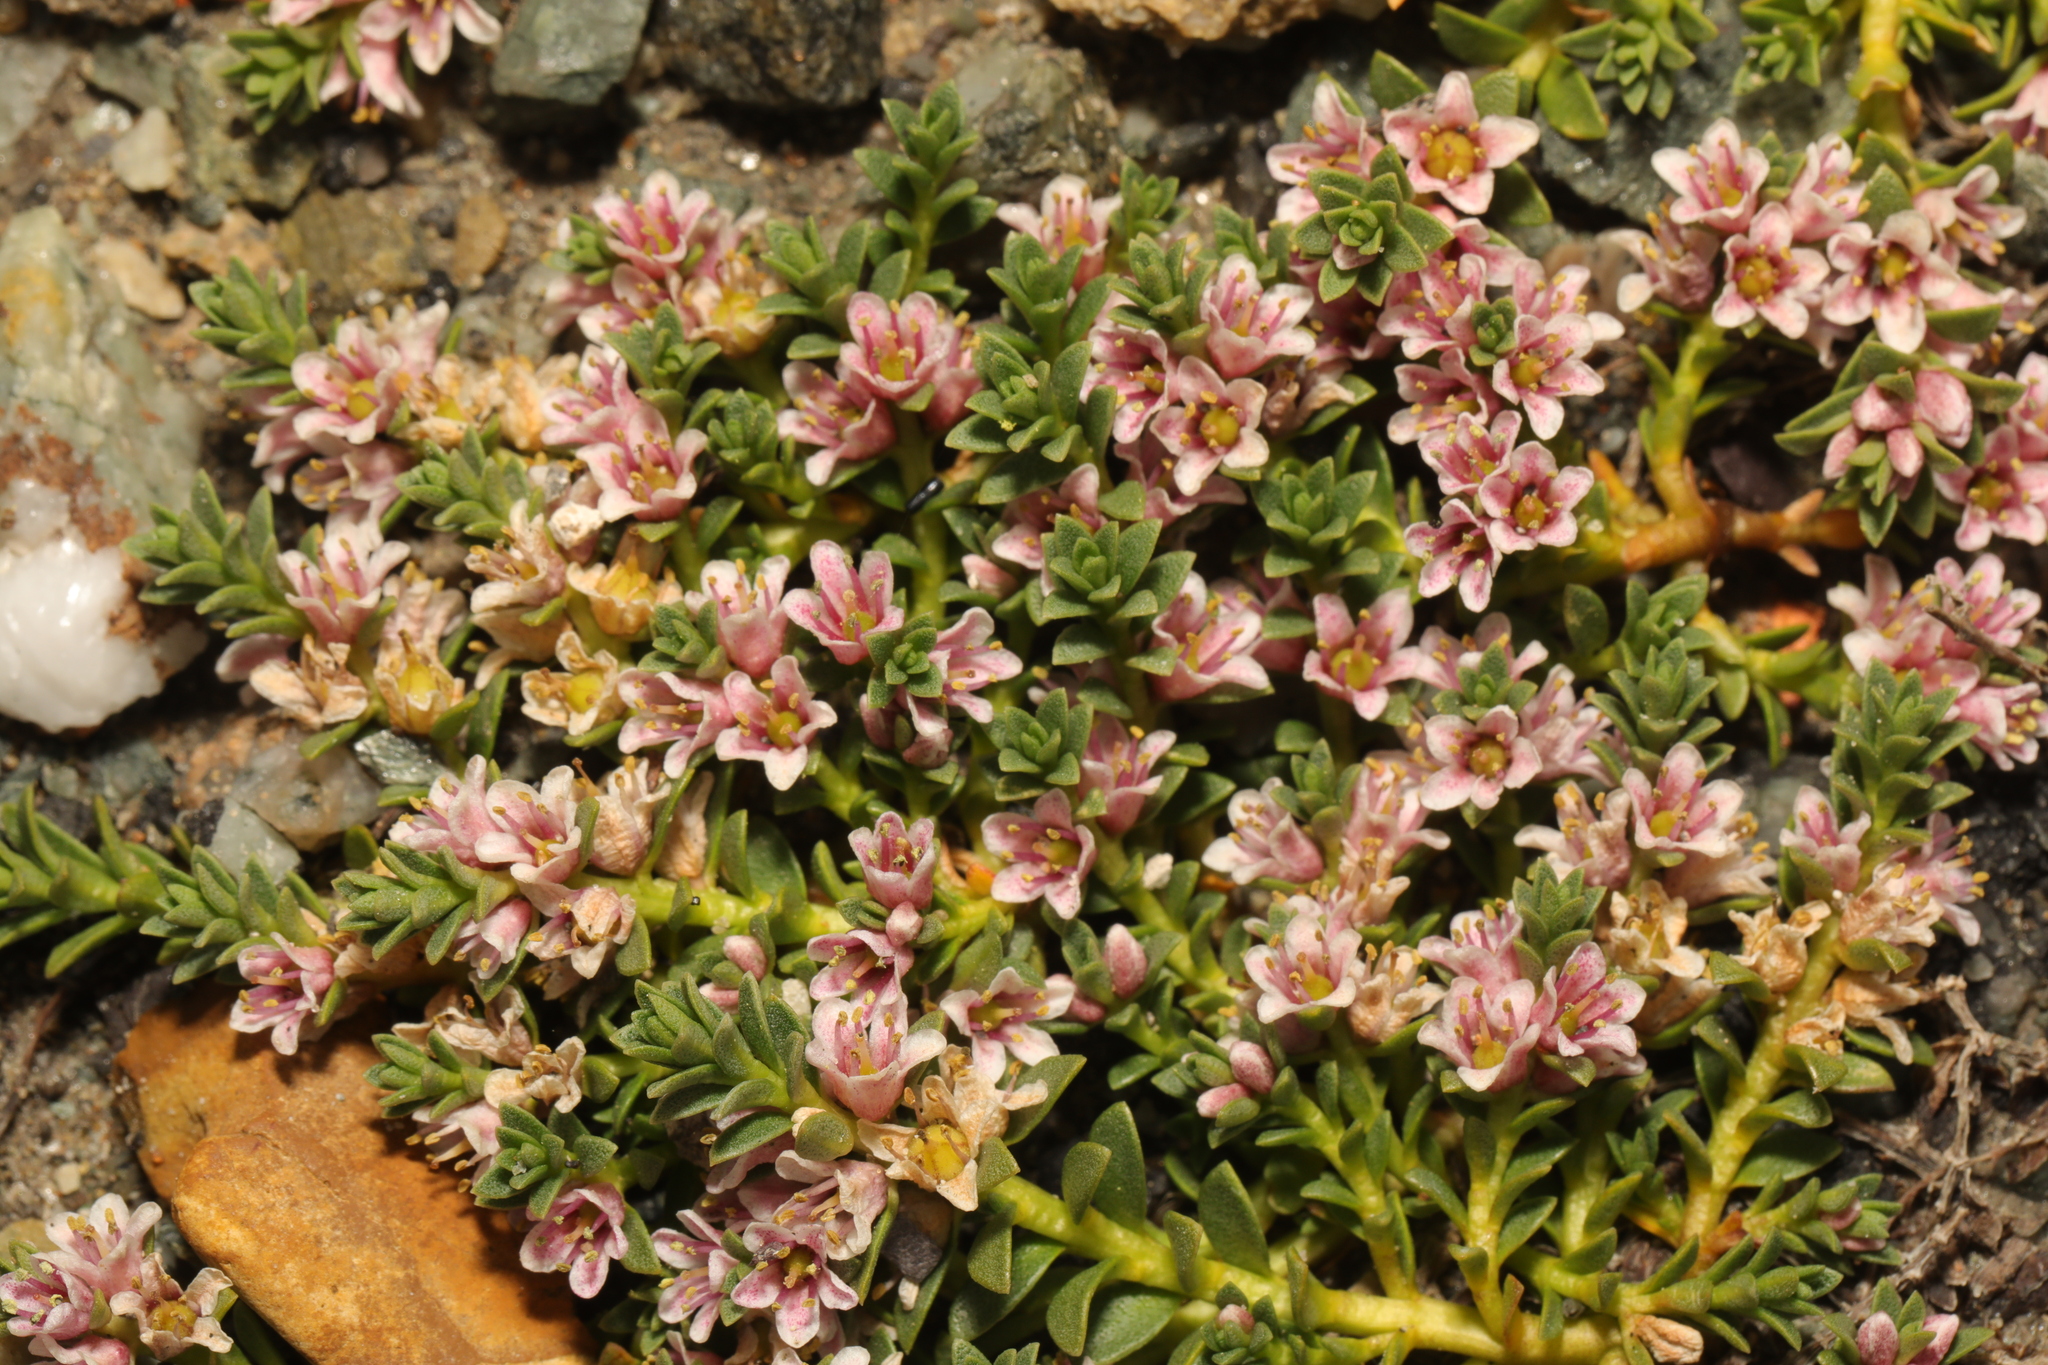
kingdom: Plantae
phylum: Tracheophyta
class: Magnoliopsida
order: Ericales
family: Primulaceae
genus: Lysimachia
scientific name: Lysimachia maritima
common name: Sea milkwort
